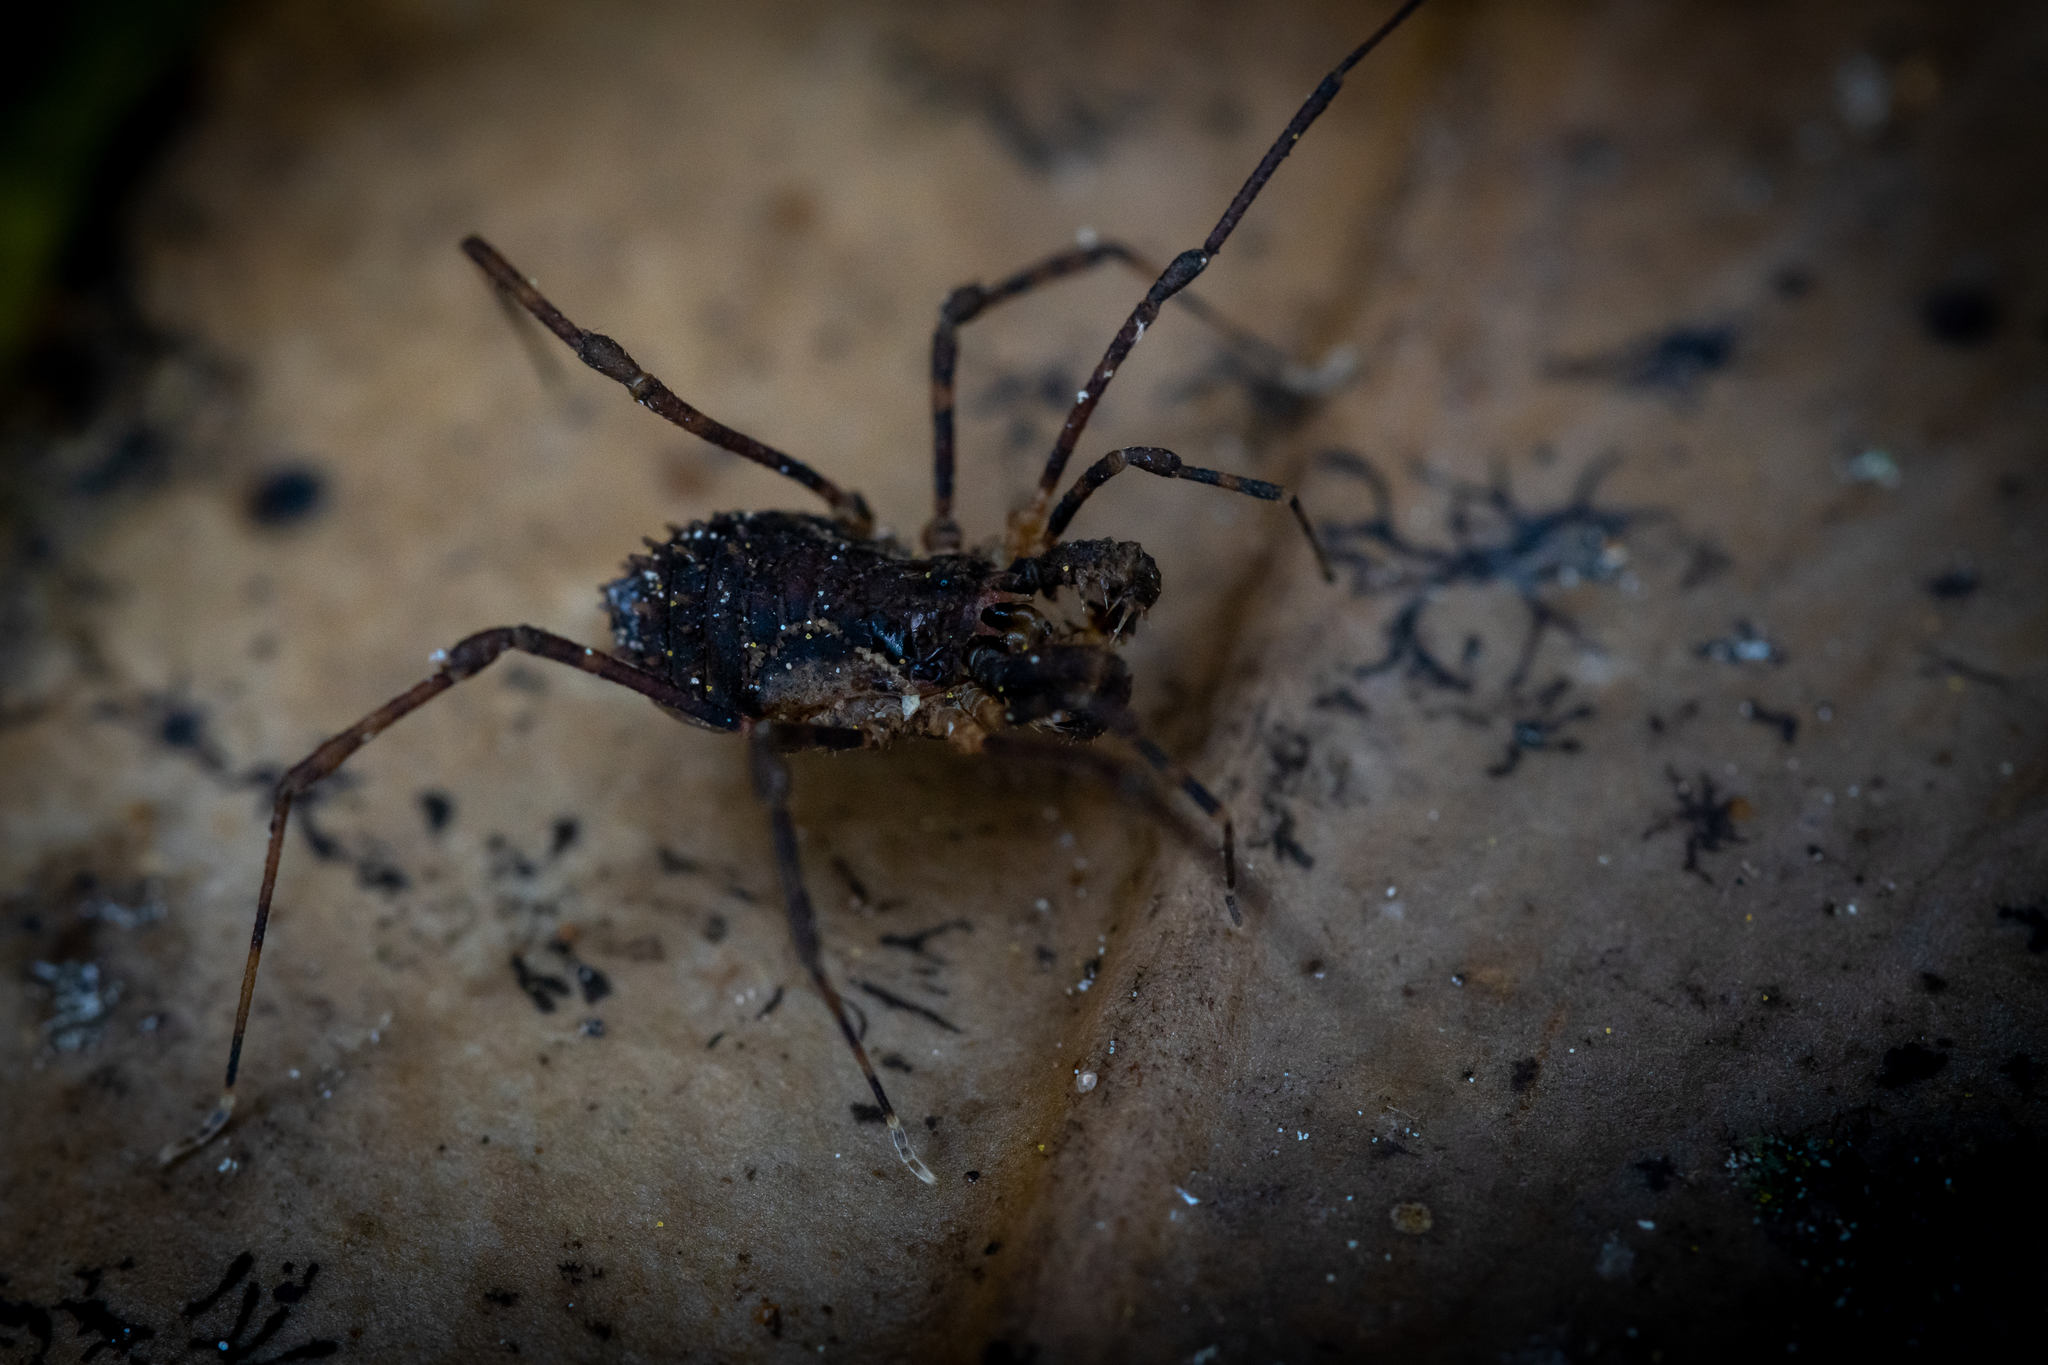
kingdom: Animalia
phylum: Arthropoda
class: Arachnida
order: Opiliones
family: Triaenonychidae
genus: Algidia
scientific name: Algidia chiltoni
